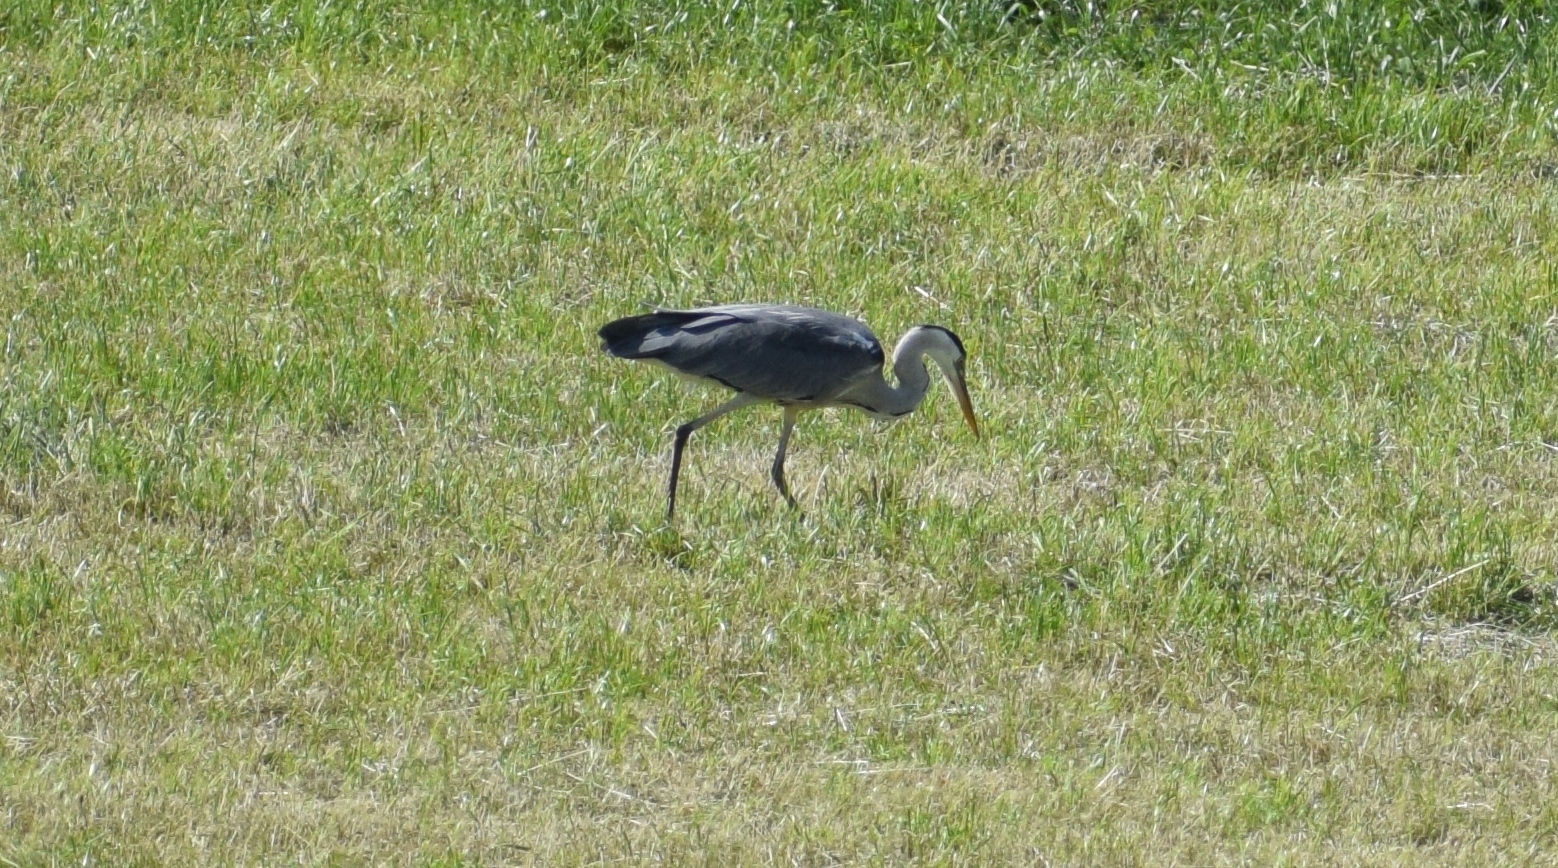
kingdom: Animalia
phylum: Chordata
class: Aves
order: Pelecaniformes
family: Ardeidae
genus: Ardea
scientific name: Ardea cinerea
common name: Grey heron
